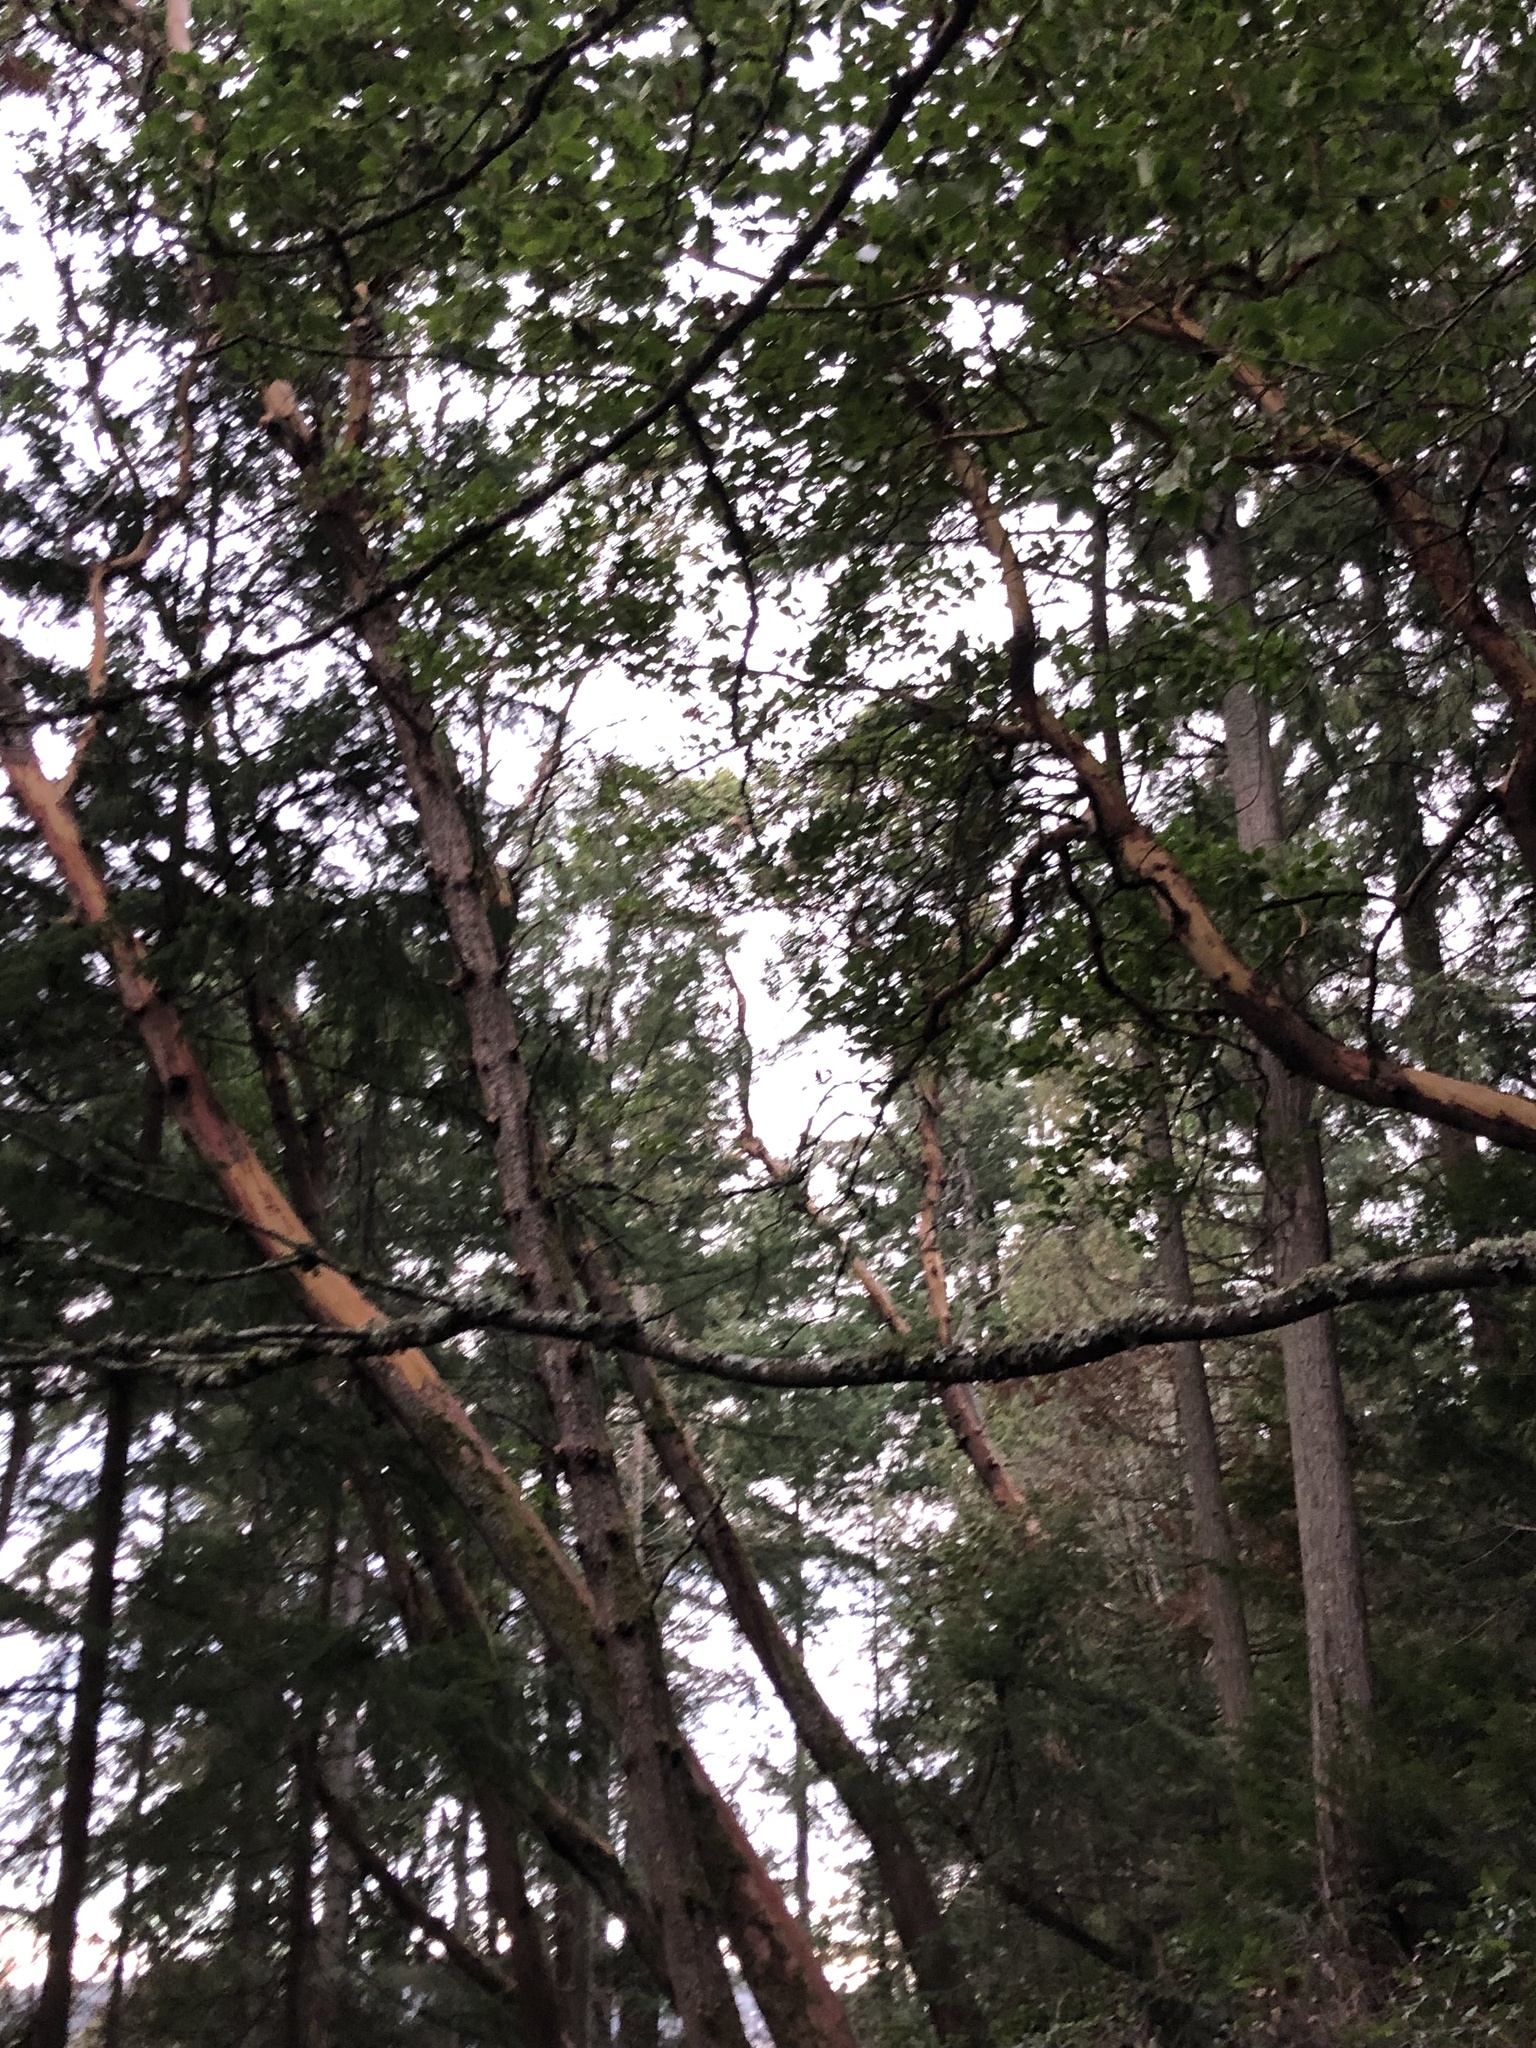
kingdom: Plantae
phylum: Tracheophyta
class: Magnoliopsida
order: Ericales
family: Ericaceae
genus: Arbutus
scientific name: Arbutus menziesii
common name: Pacific madrone
